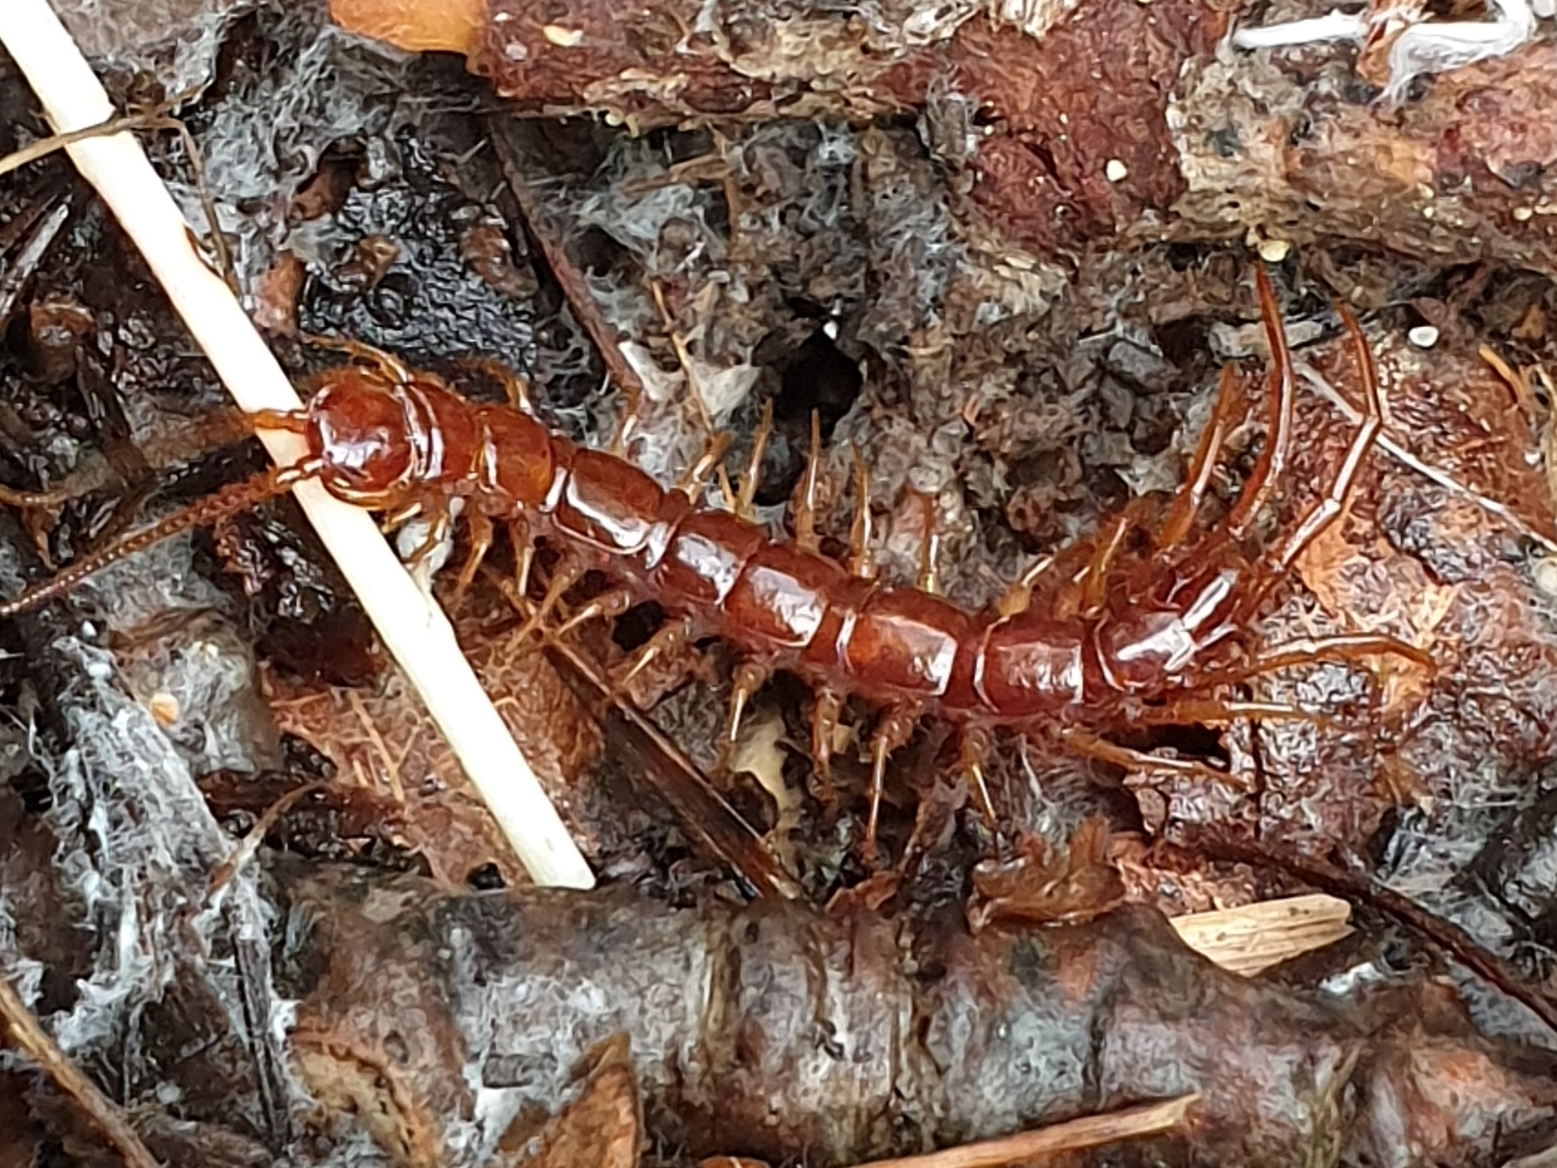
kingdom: Animalia
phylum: Arthropoda
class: Chilopoda
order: Lithobiomorpha
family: Lithobiidae
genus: Lithobius
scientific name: Lithobius forficatus
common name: Centipede
